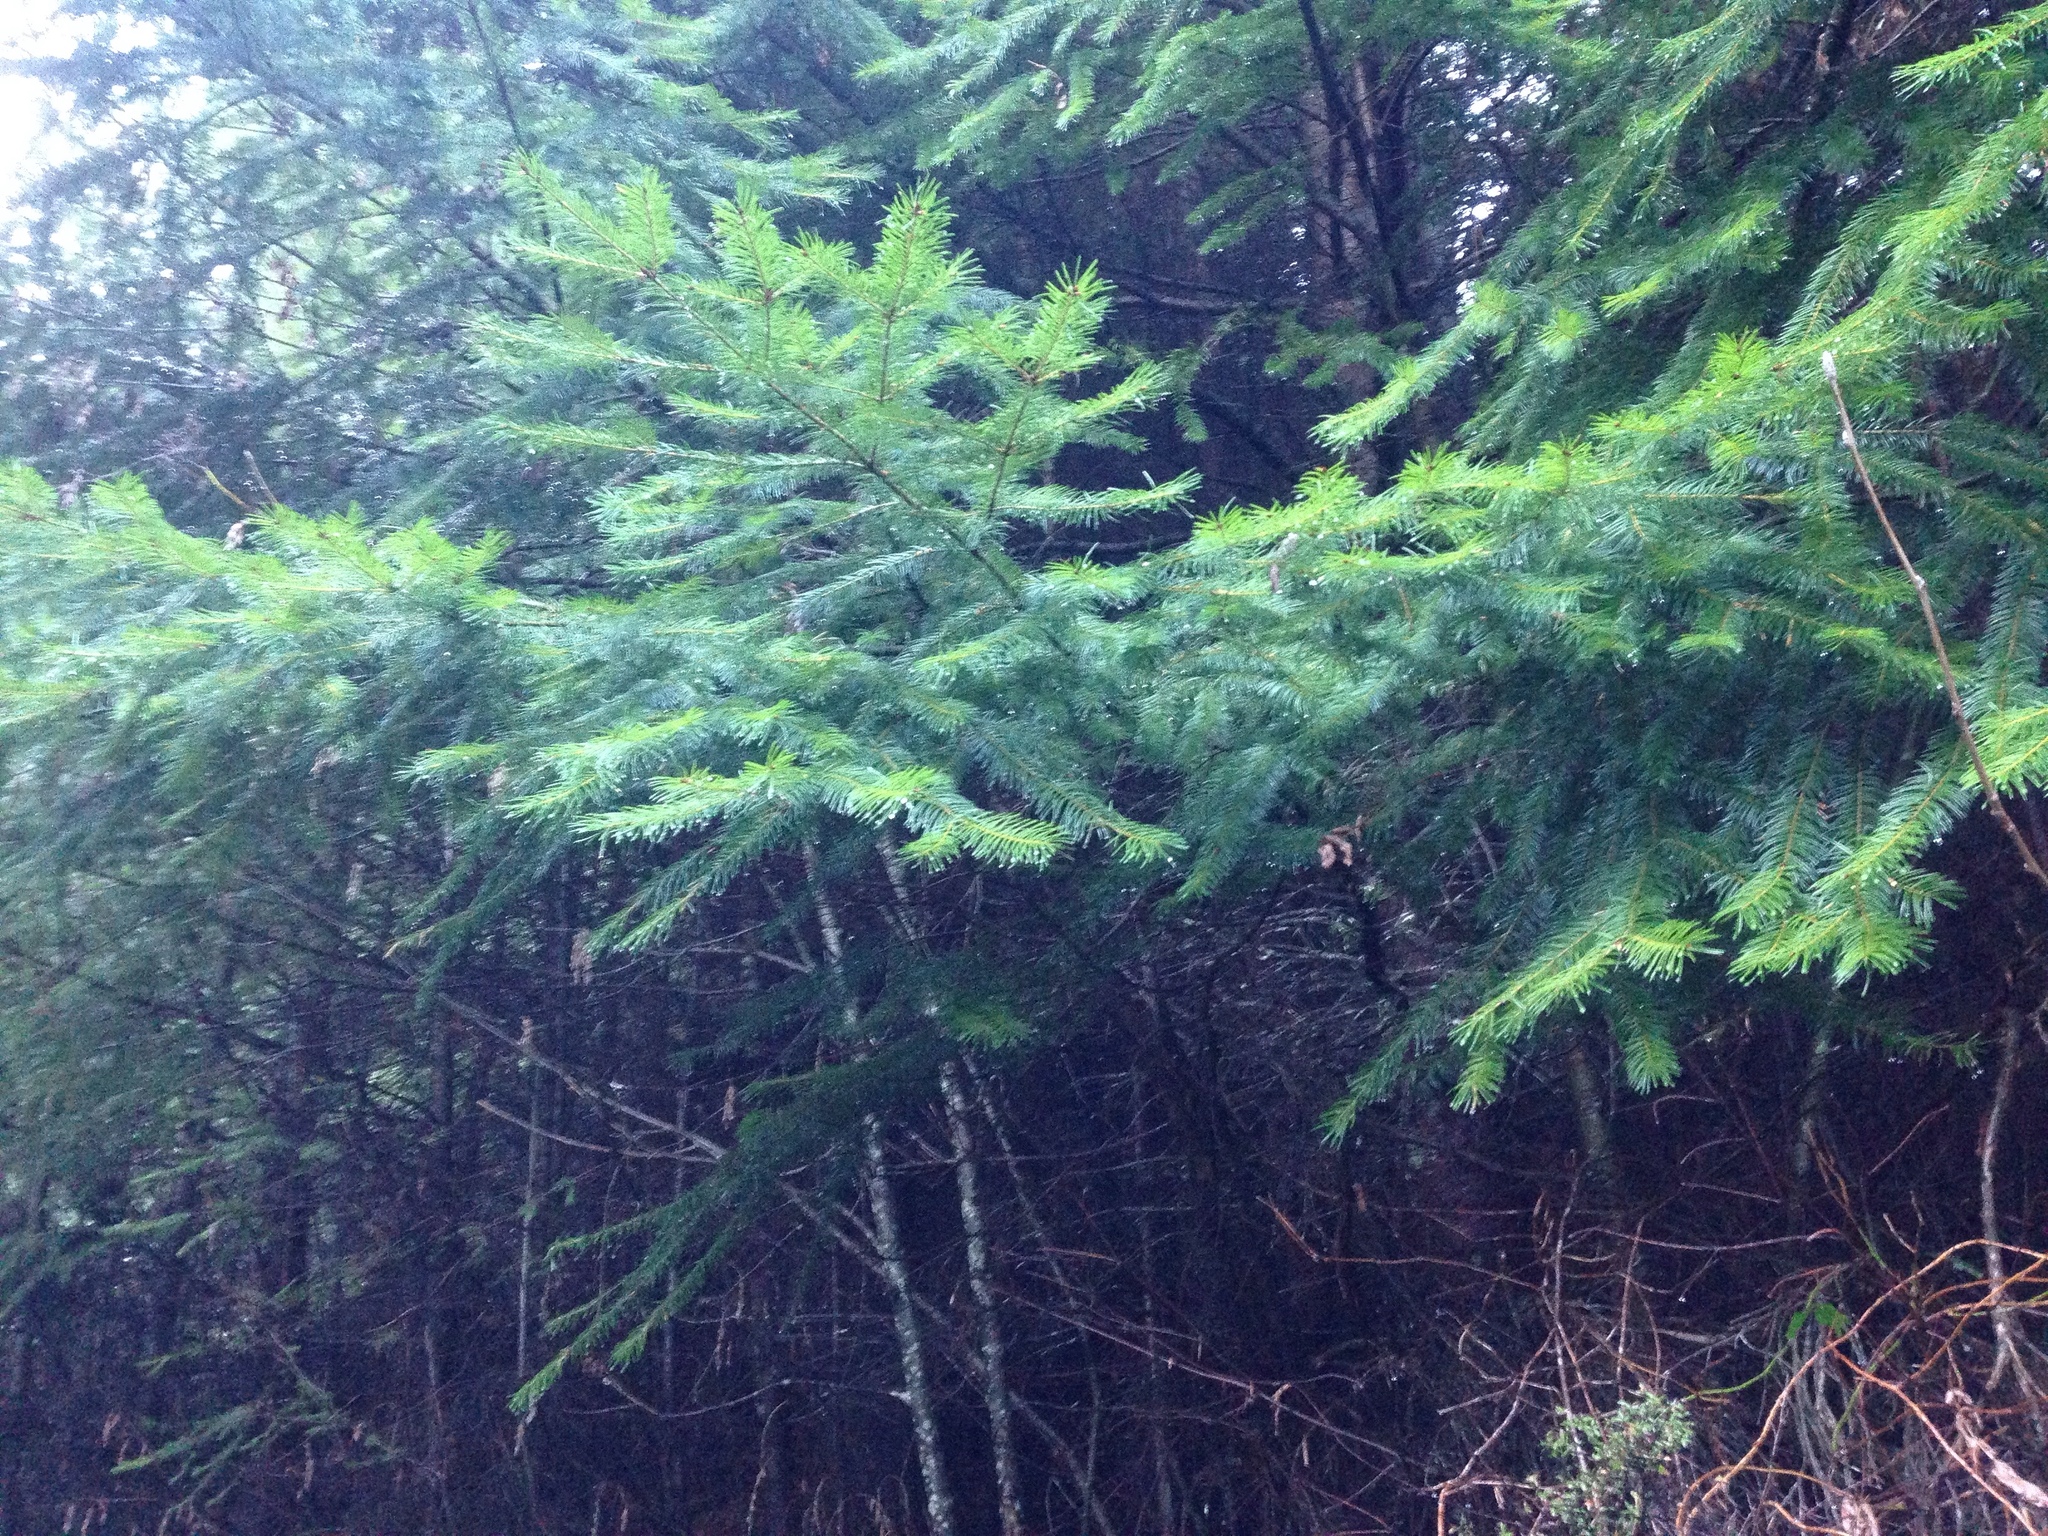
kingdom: Plantae
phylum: Tracheophyta
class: Pinopsida
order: Pinales
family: Pinaceae
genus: Pseudotsuga
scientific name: Pseudotsuga menziesii
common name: Douglas fir
